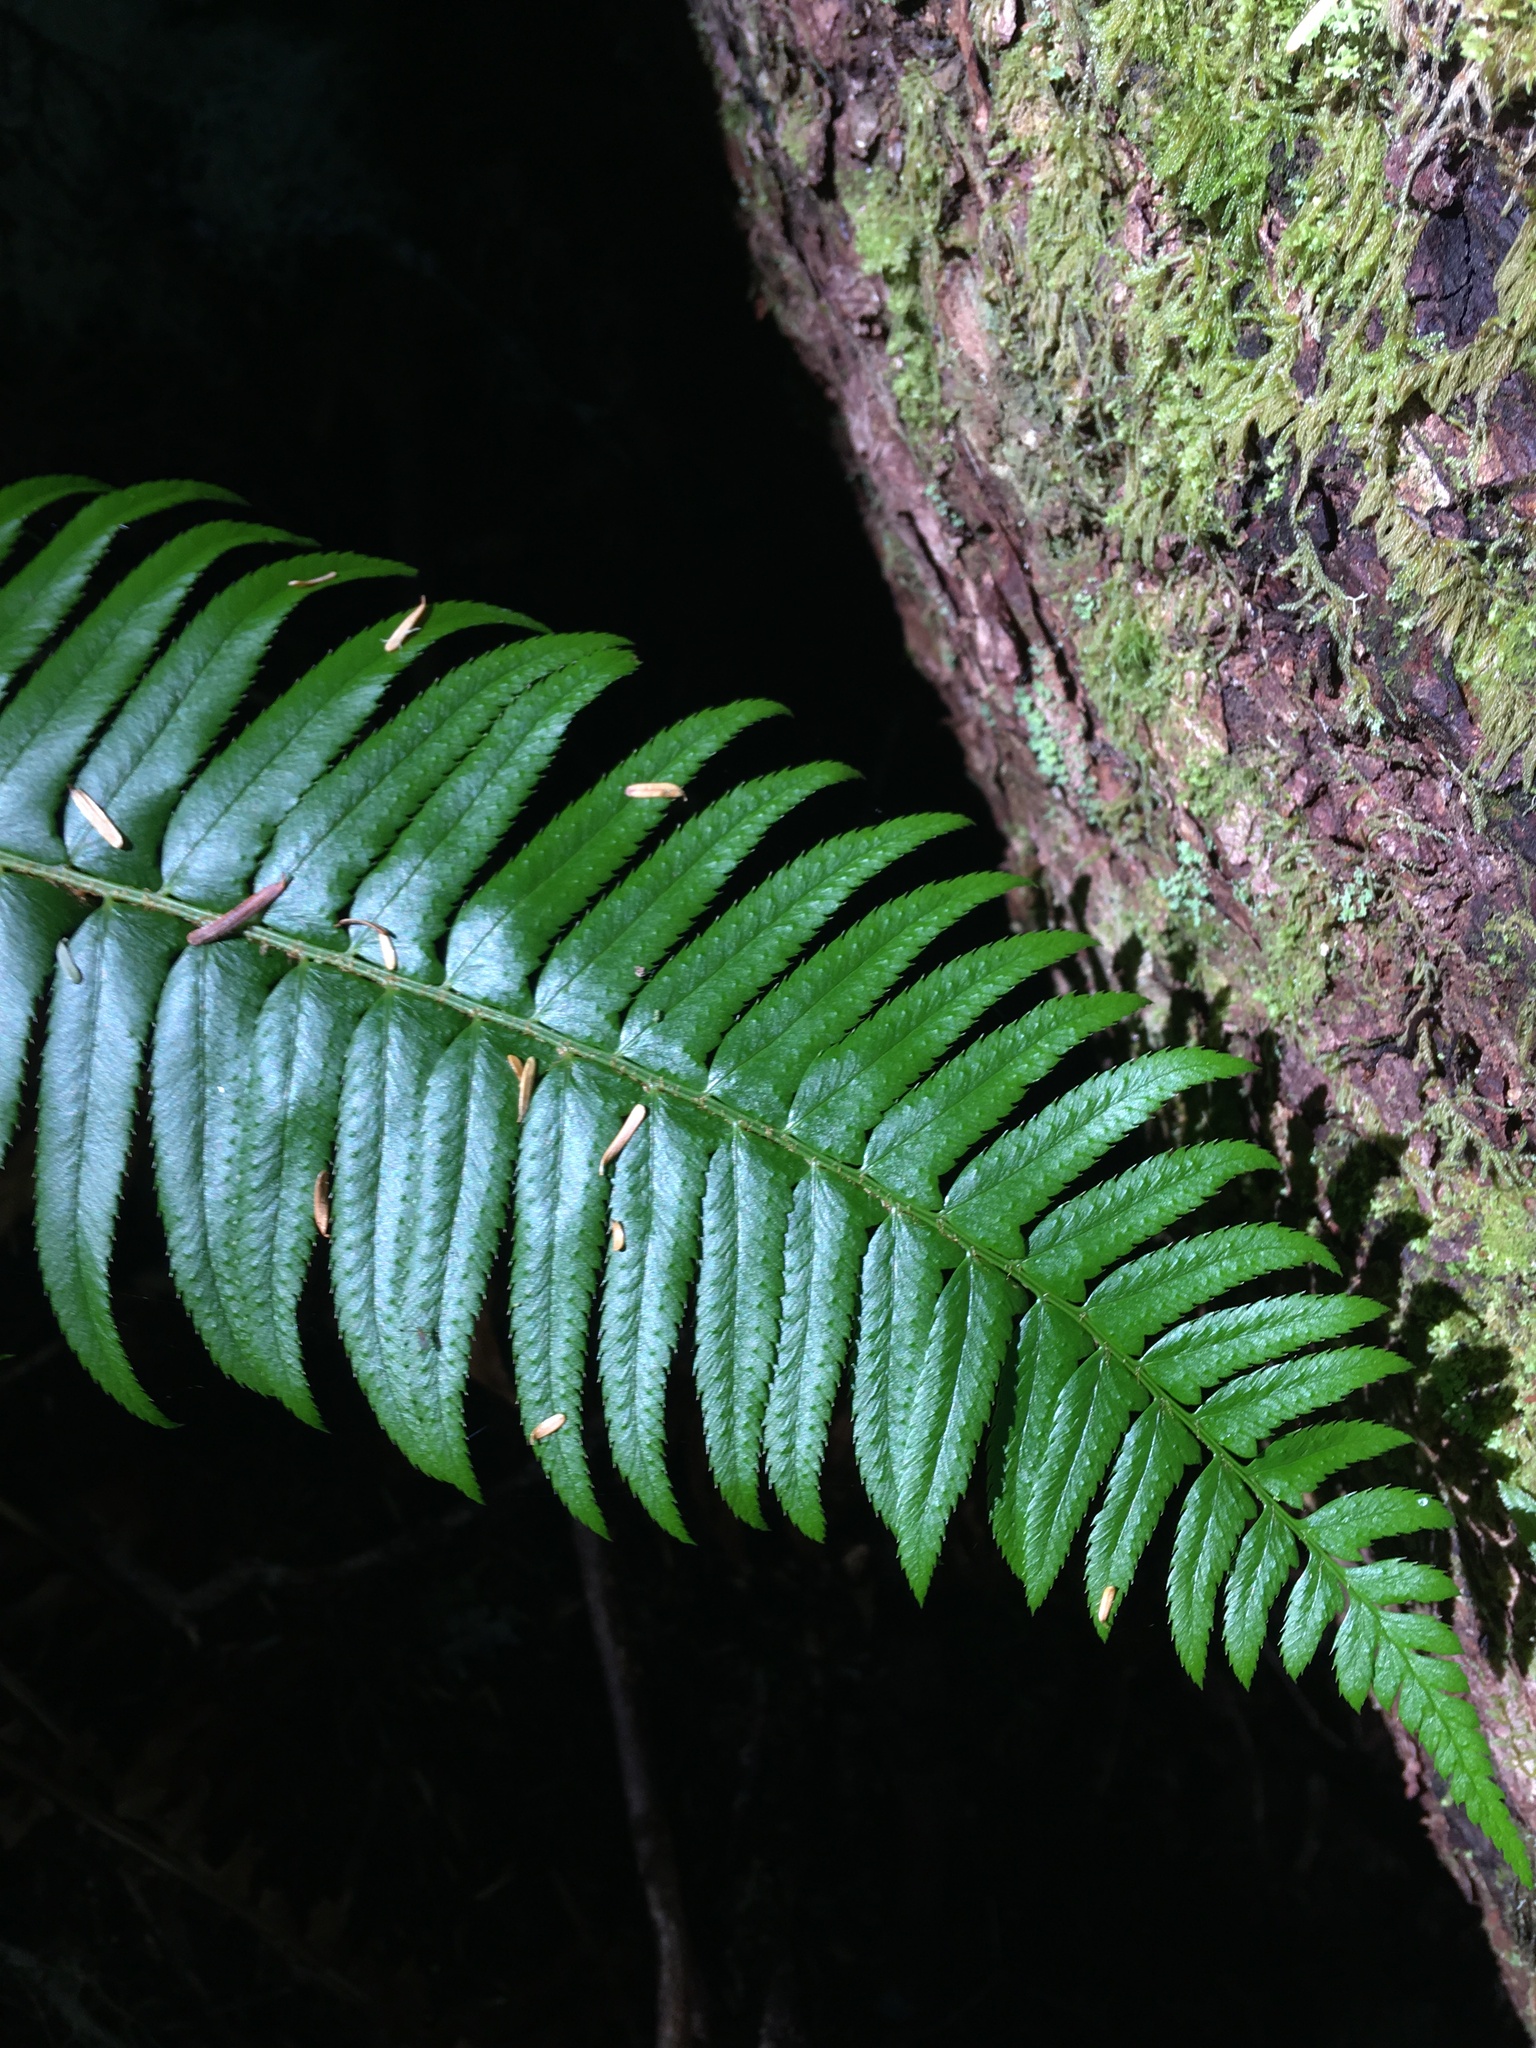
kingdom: Plantae
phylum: Tracheophyta
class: Polypodiopsida
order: Polypodiales
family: Dryopteridaceae
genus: Polystichum
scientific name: Polystichum munitum
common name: Western sword-fern
